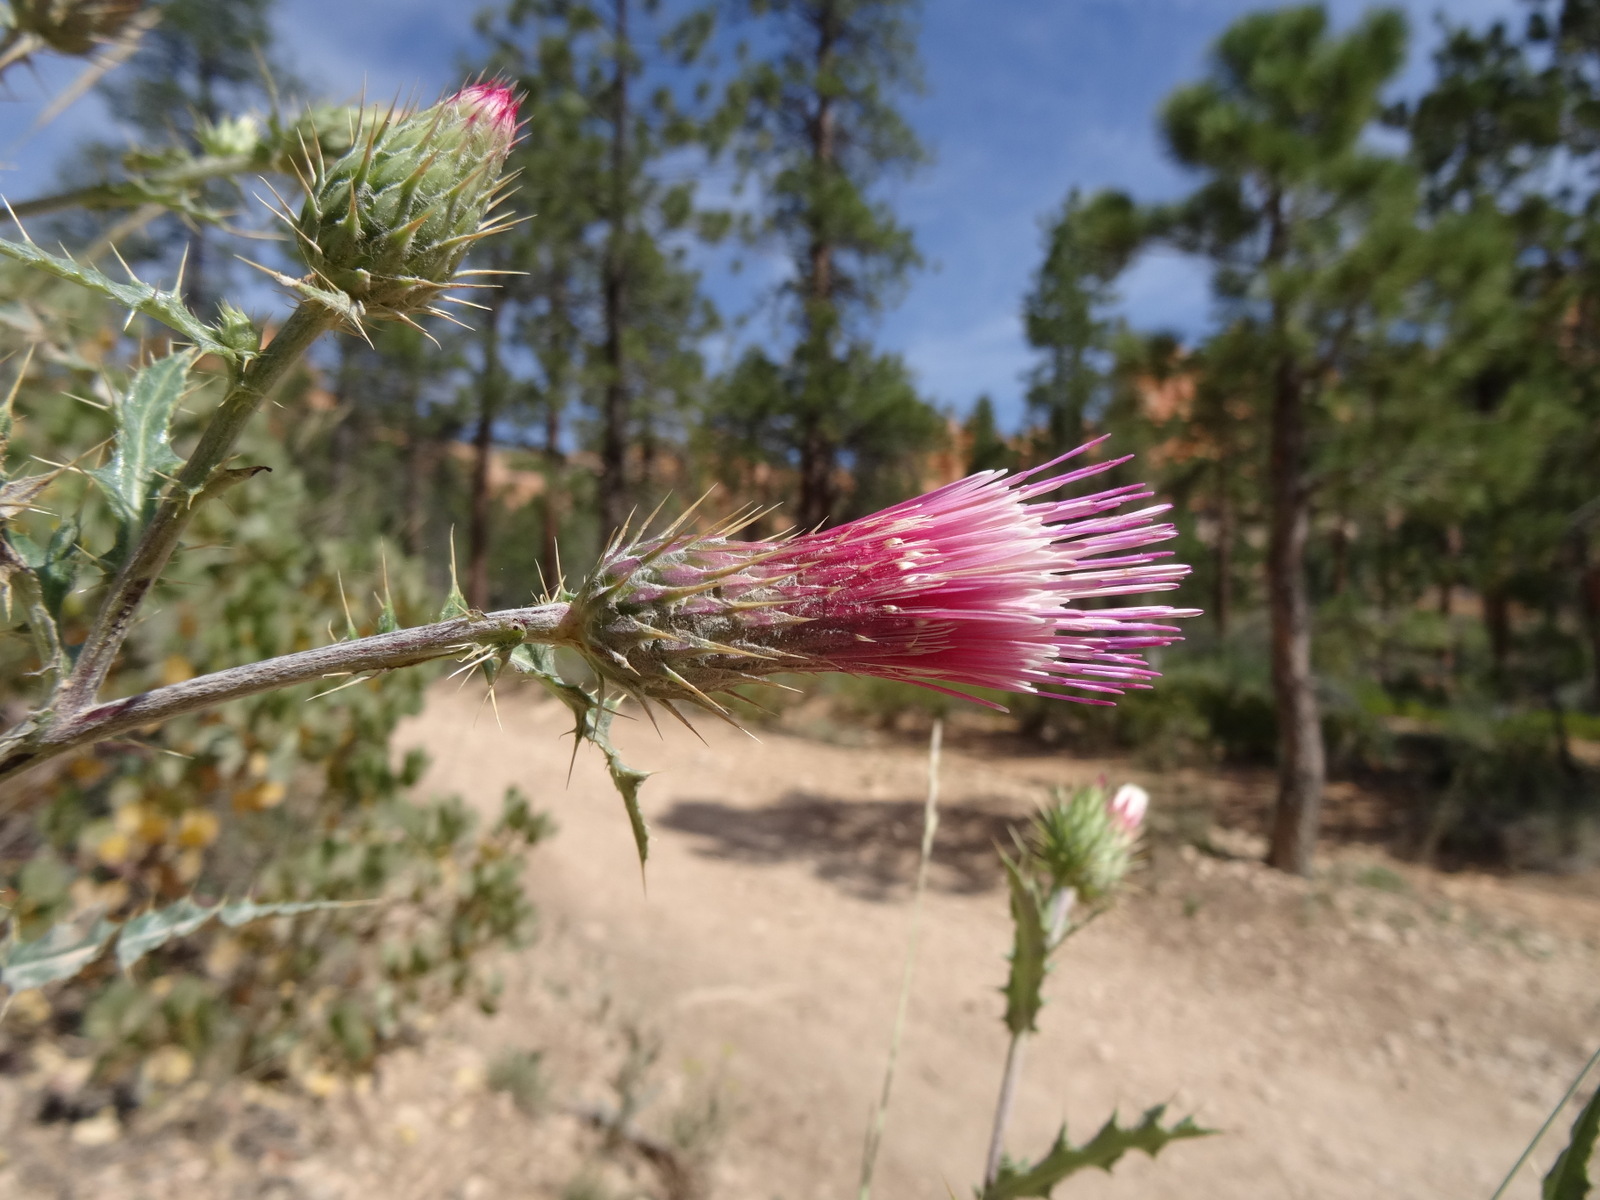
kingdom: Plantae
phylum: Tracheophyta
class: Magnoliopsida
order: Asterales
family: Asteraceae
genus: Cirsium
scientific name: Cirsium arizonicum
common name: Arizona thistle
